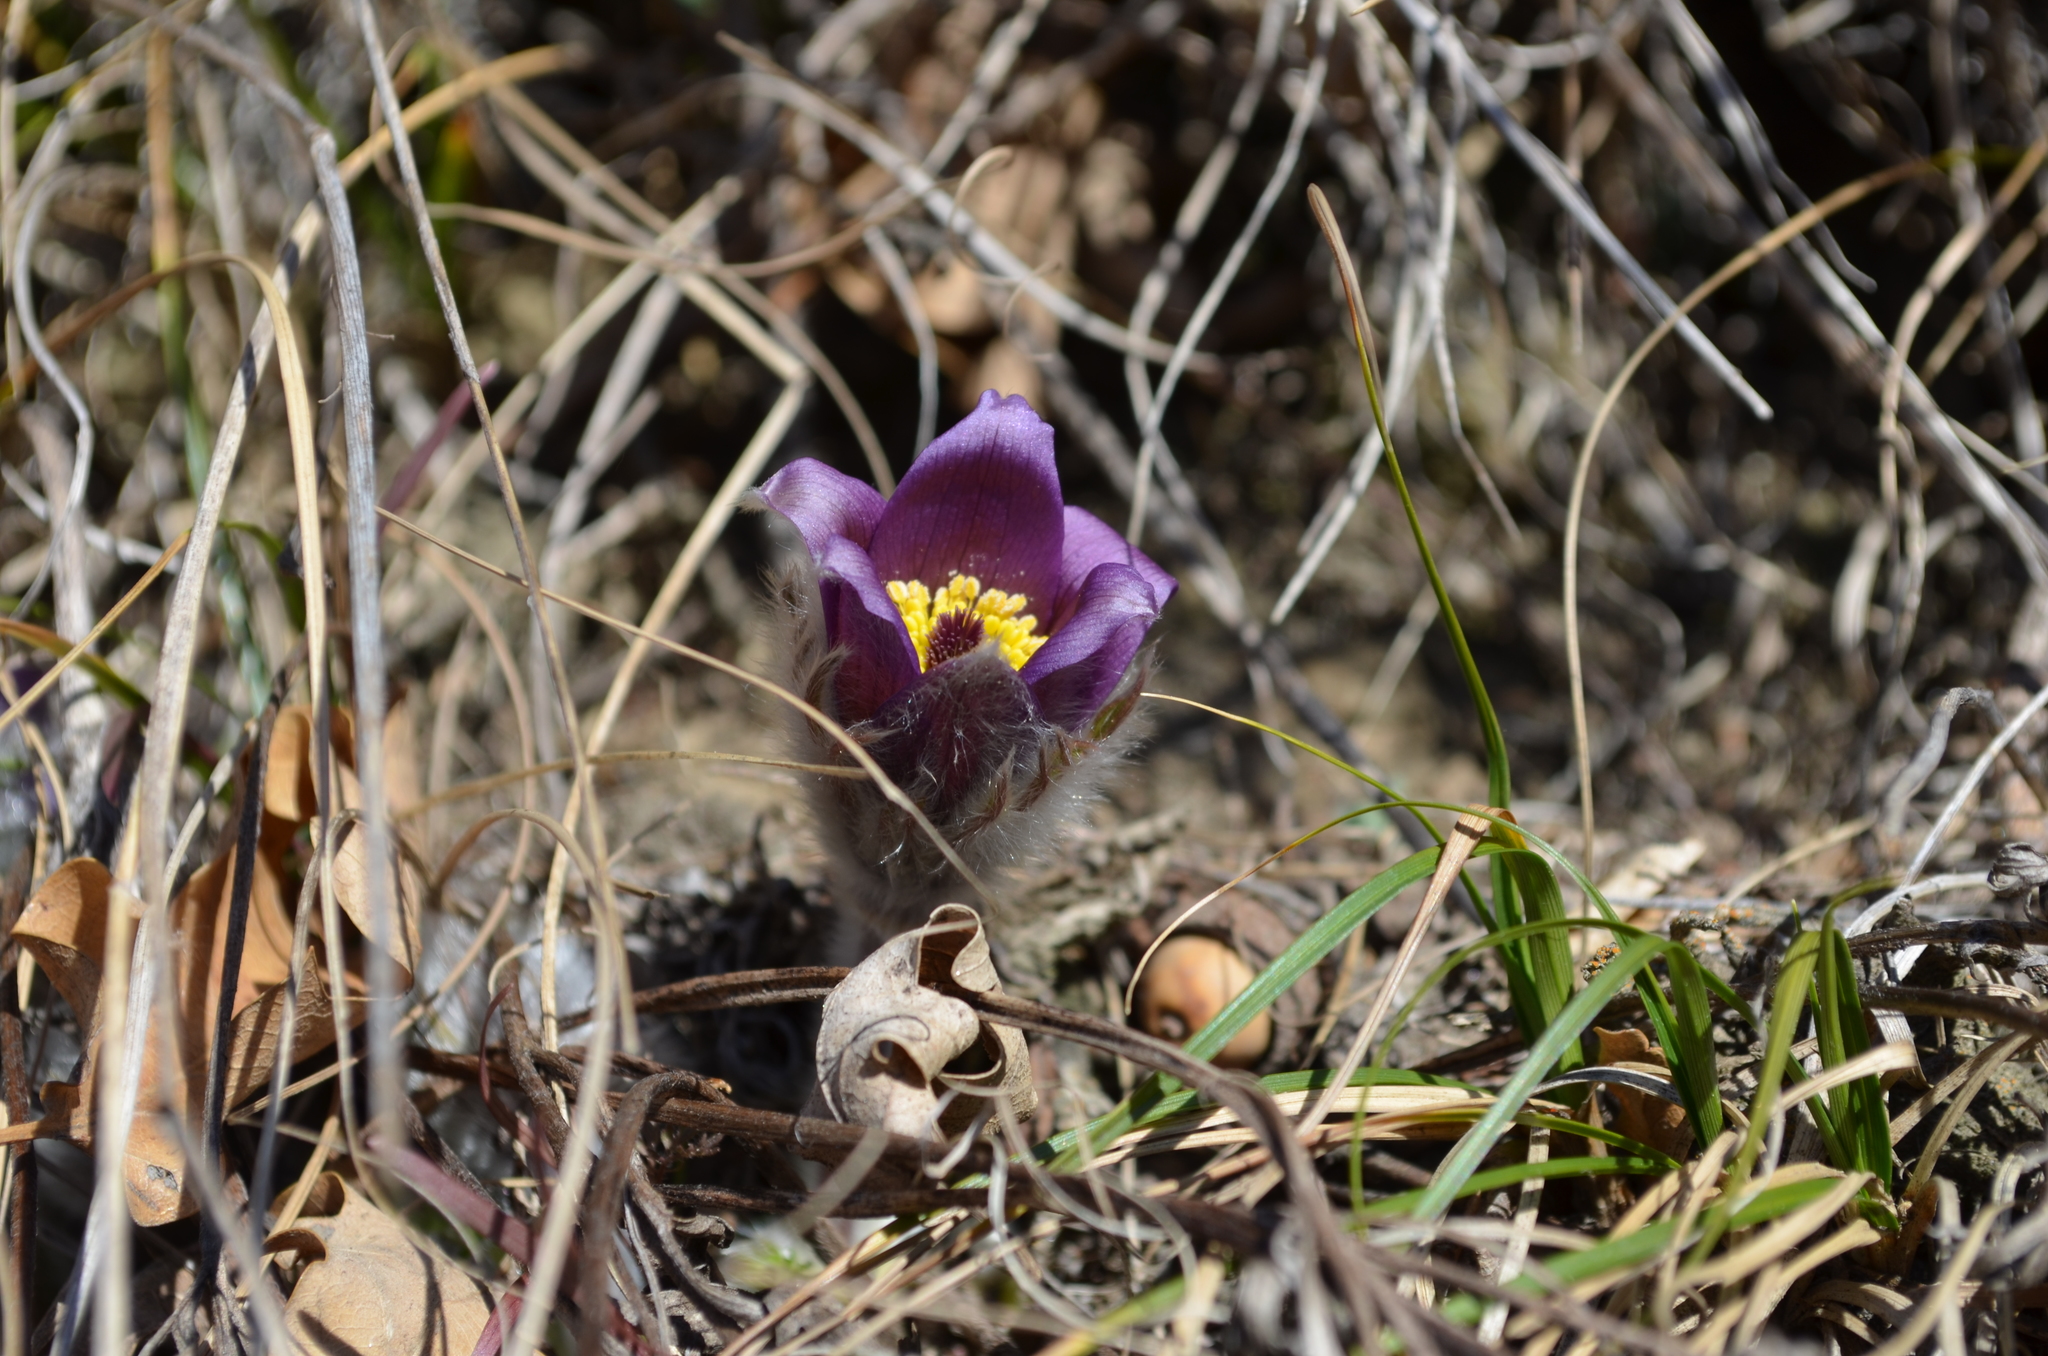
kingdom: Plantae
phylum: Tracheophyta
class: Magnoliopsida
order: Ranunculales
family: Ranunculaceae
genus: Pulsatilla
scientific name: Pulsatilla montana
